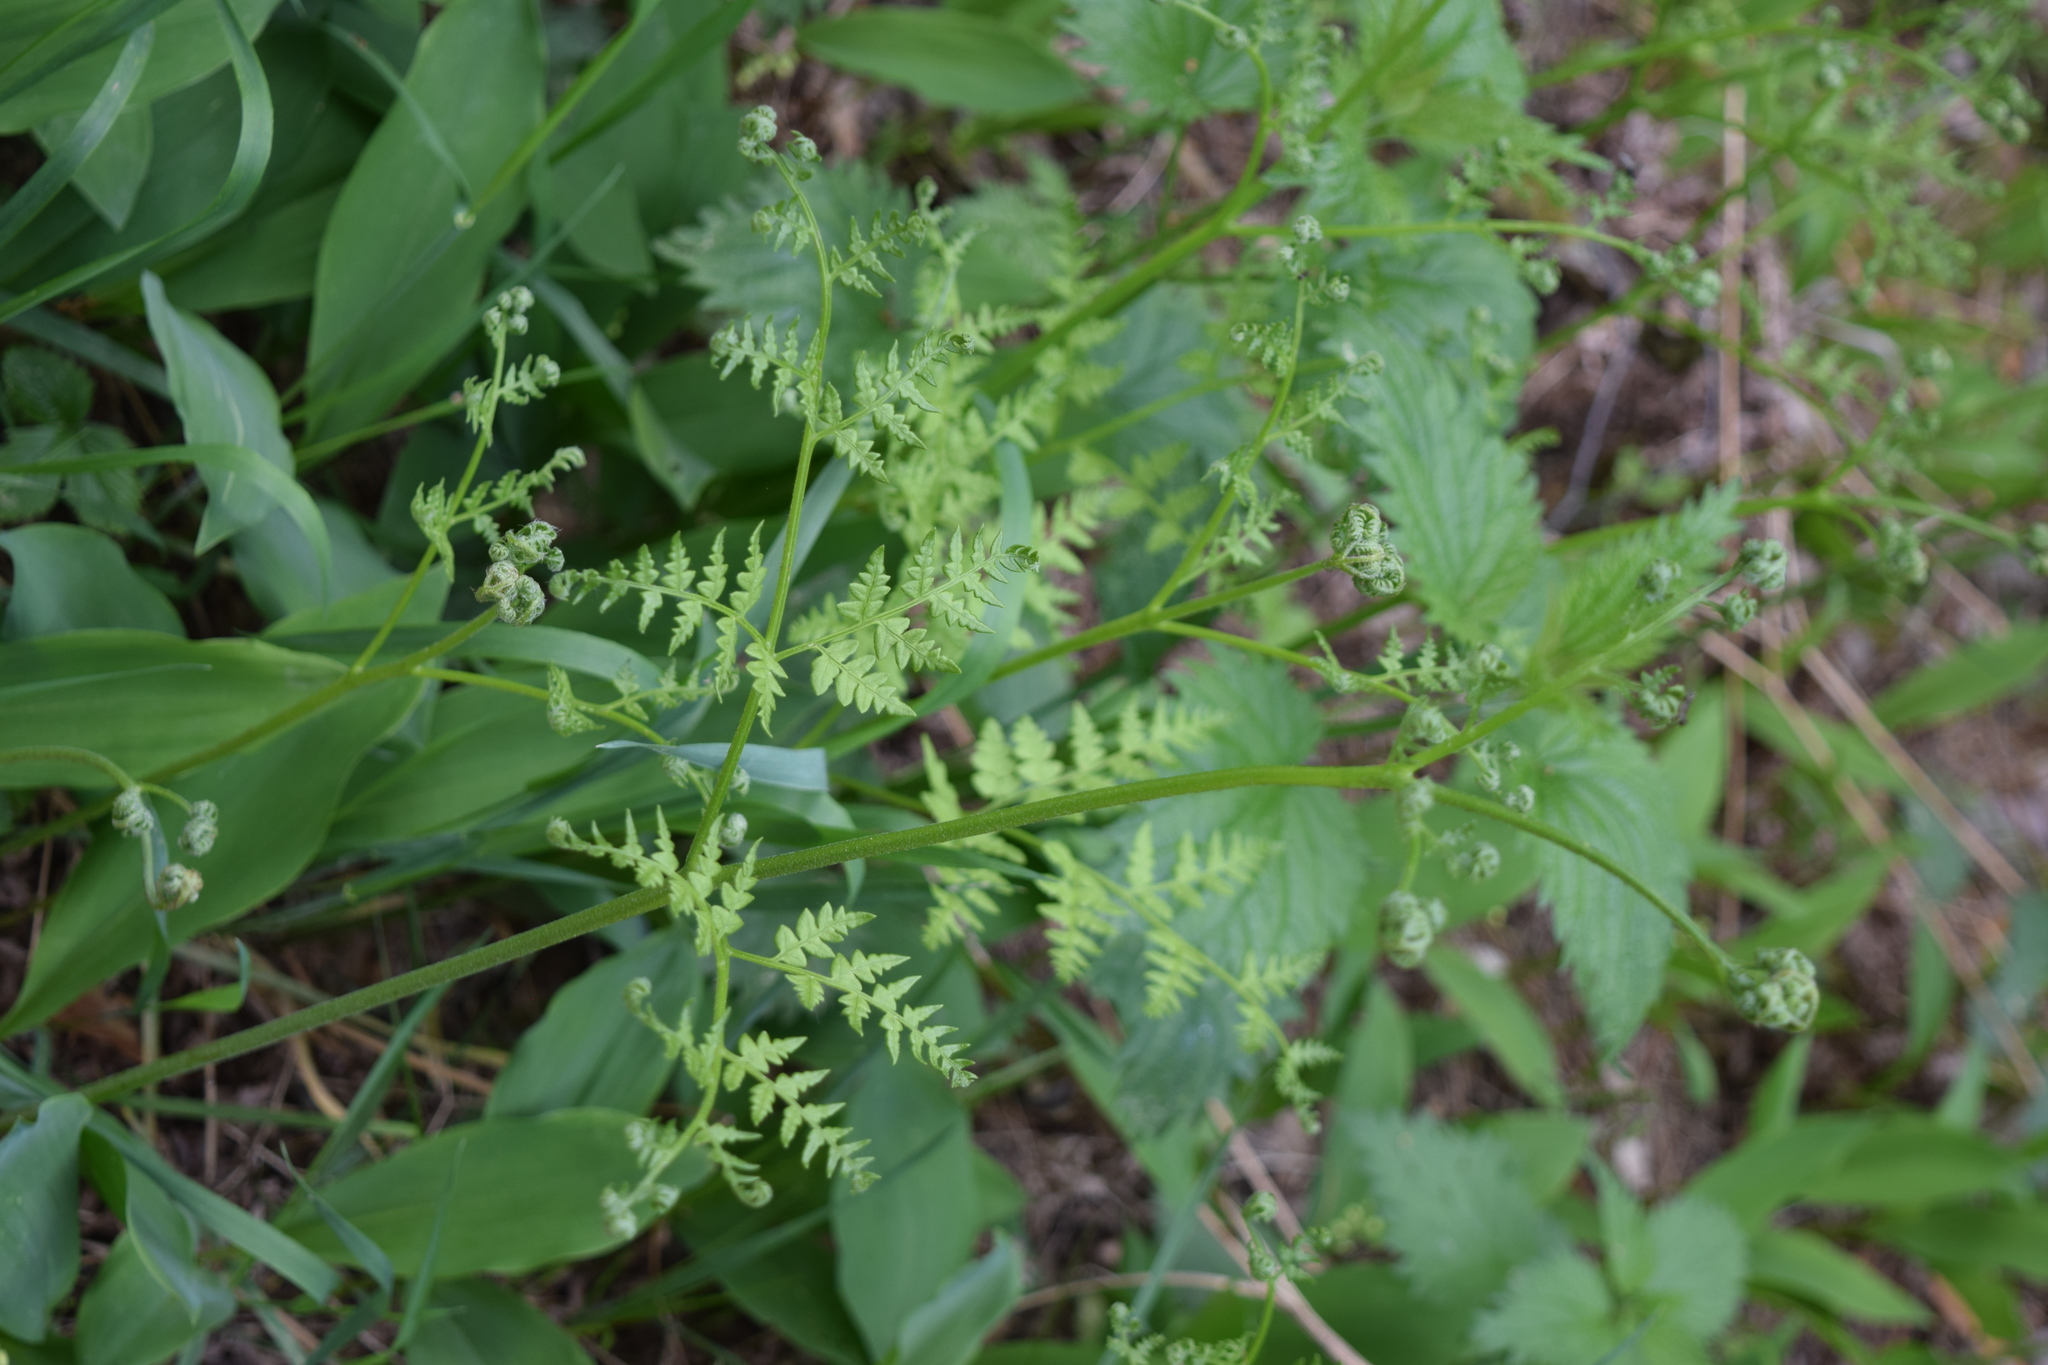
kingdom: Plantae
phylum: Tracheophyta
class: Polypodiopsida
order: Polypodiales
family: Dennstaedtiaceae
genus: Pteridium
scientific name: Pteridium aquilinum
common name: Bracken
